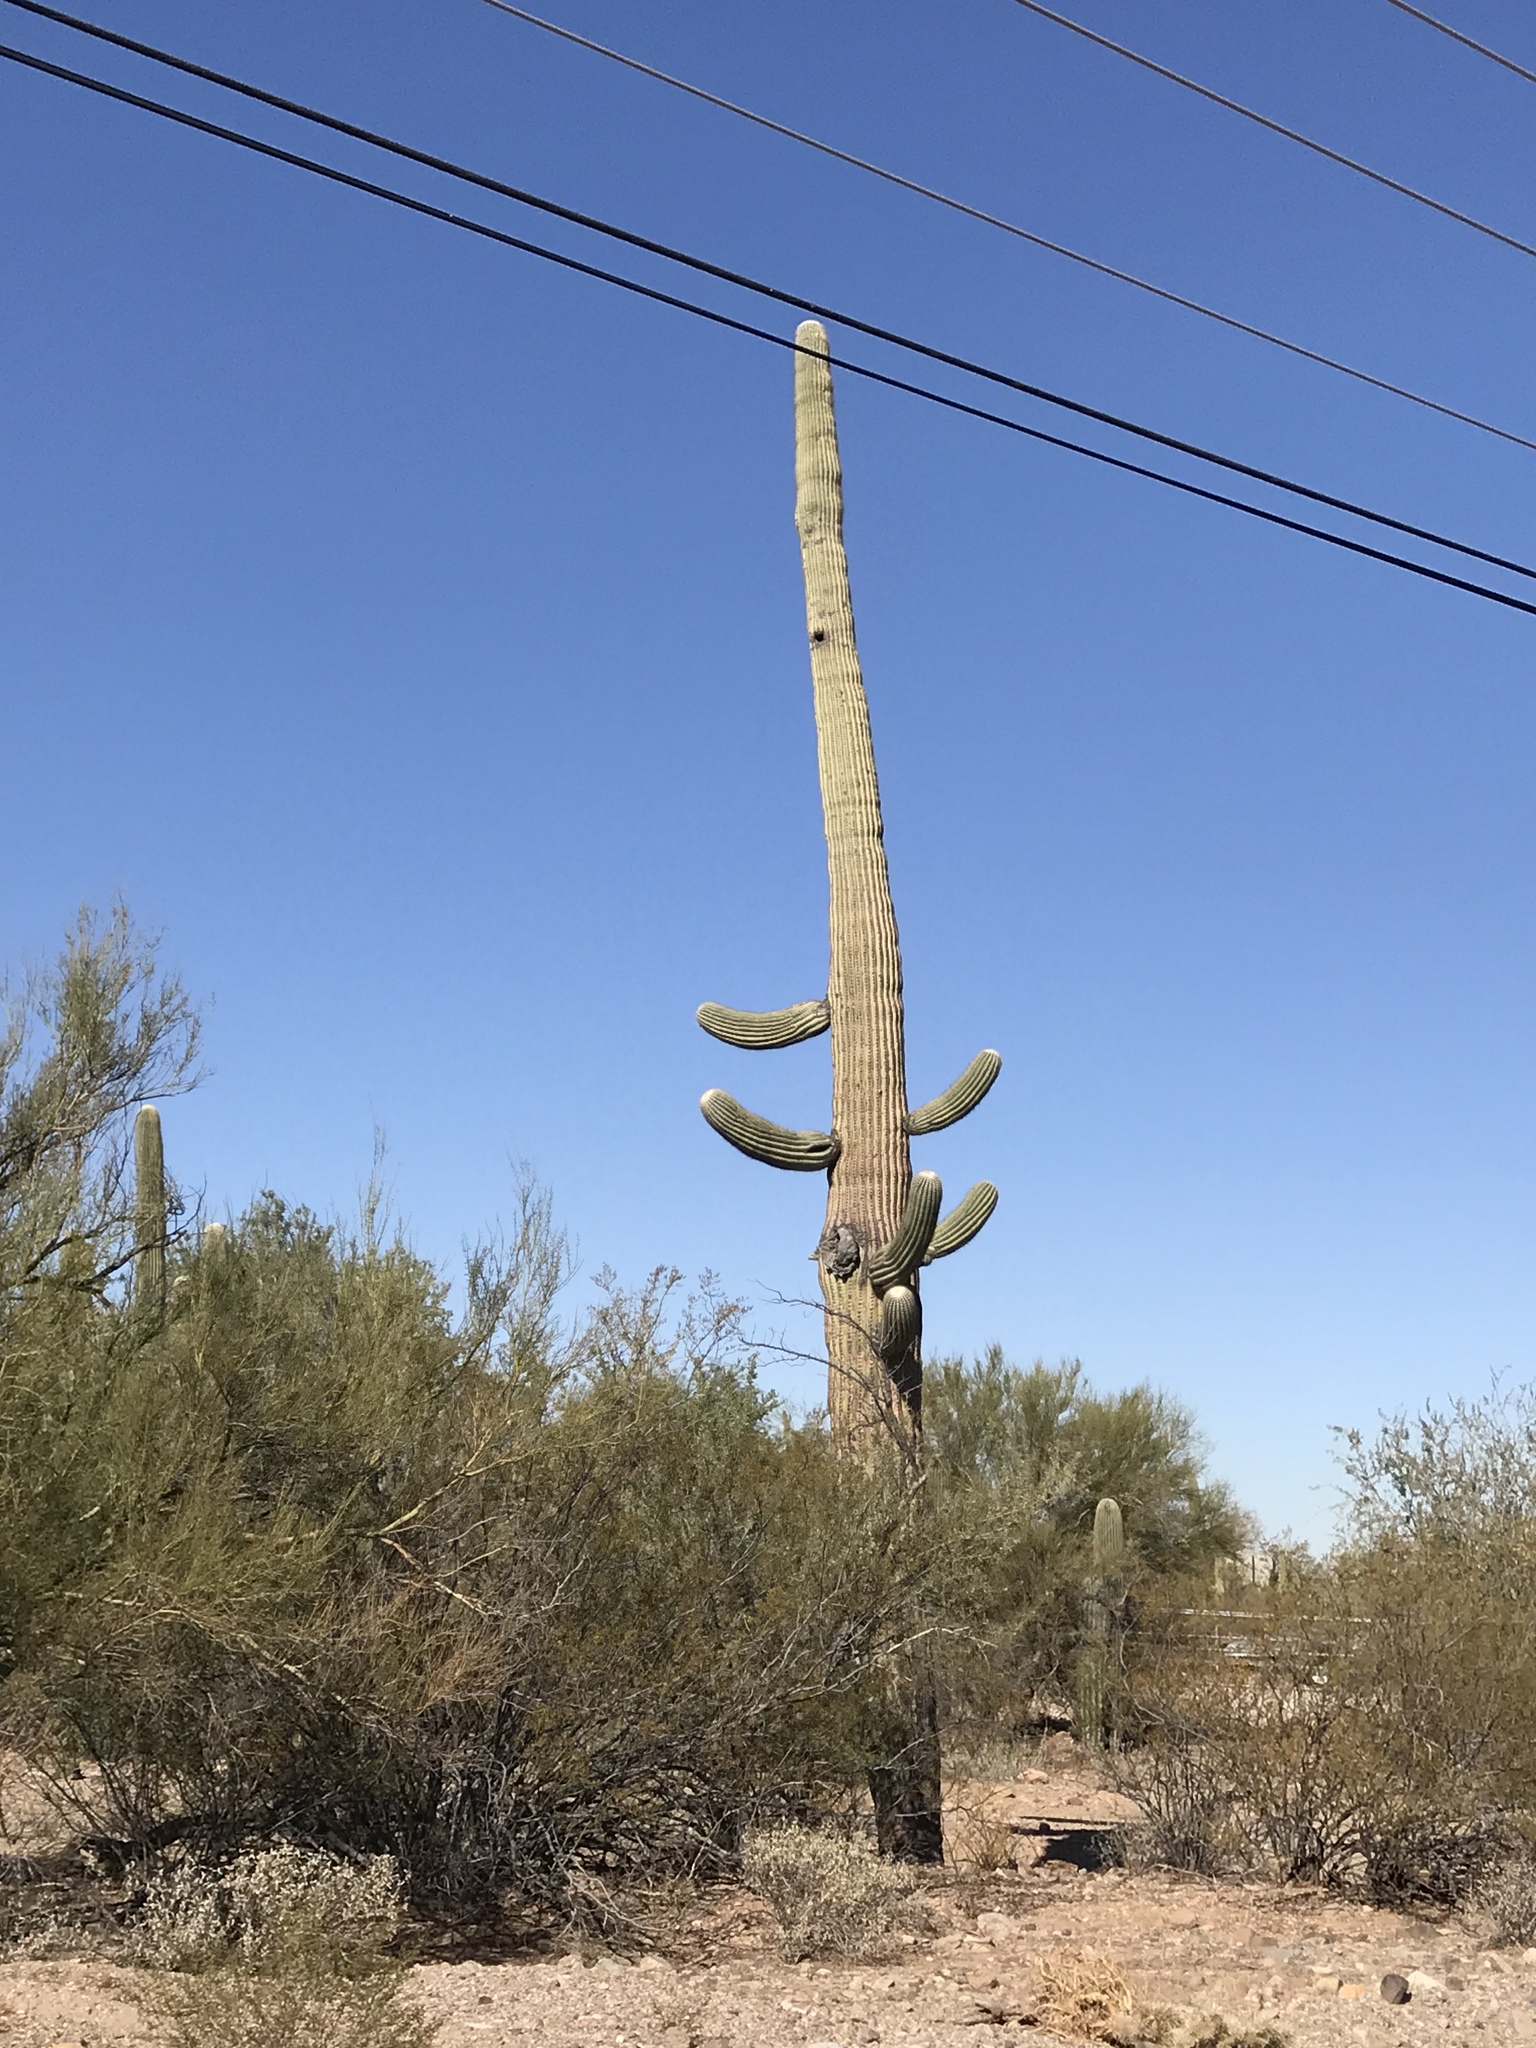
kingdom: Plantae
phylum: Tracheophyta
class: Magnoliopsida
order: Caryophyllales
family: Cactaceae
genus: Carnegiea
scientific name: Carnegiea gigantea
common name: Saguaro
